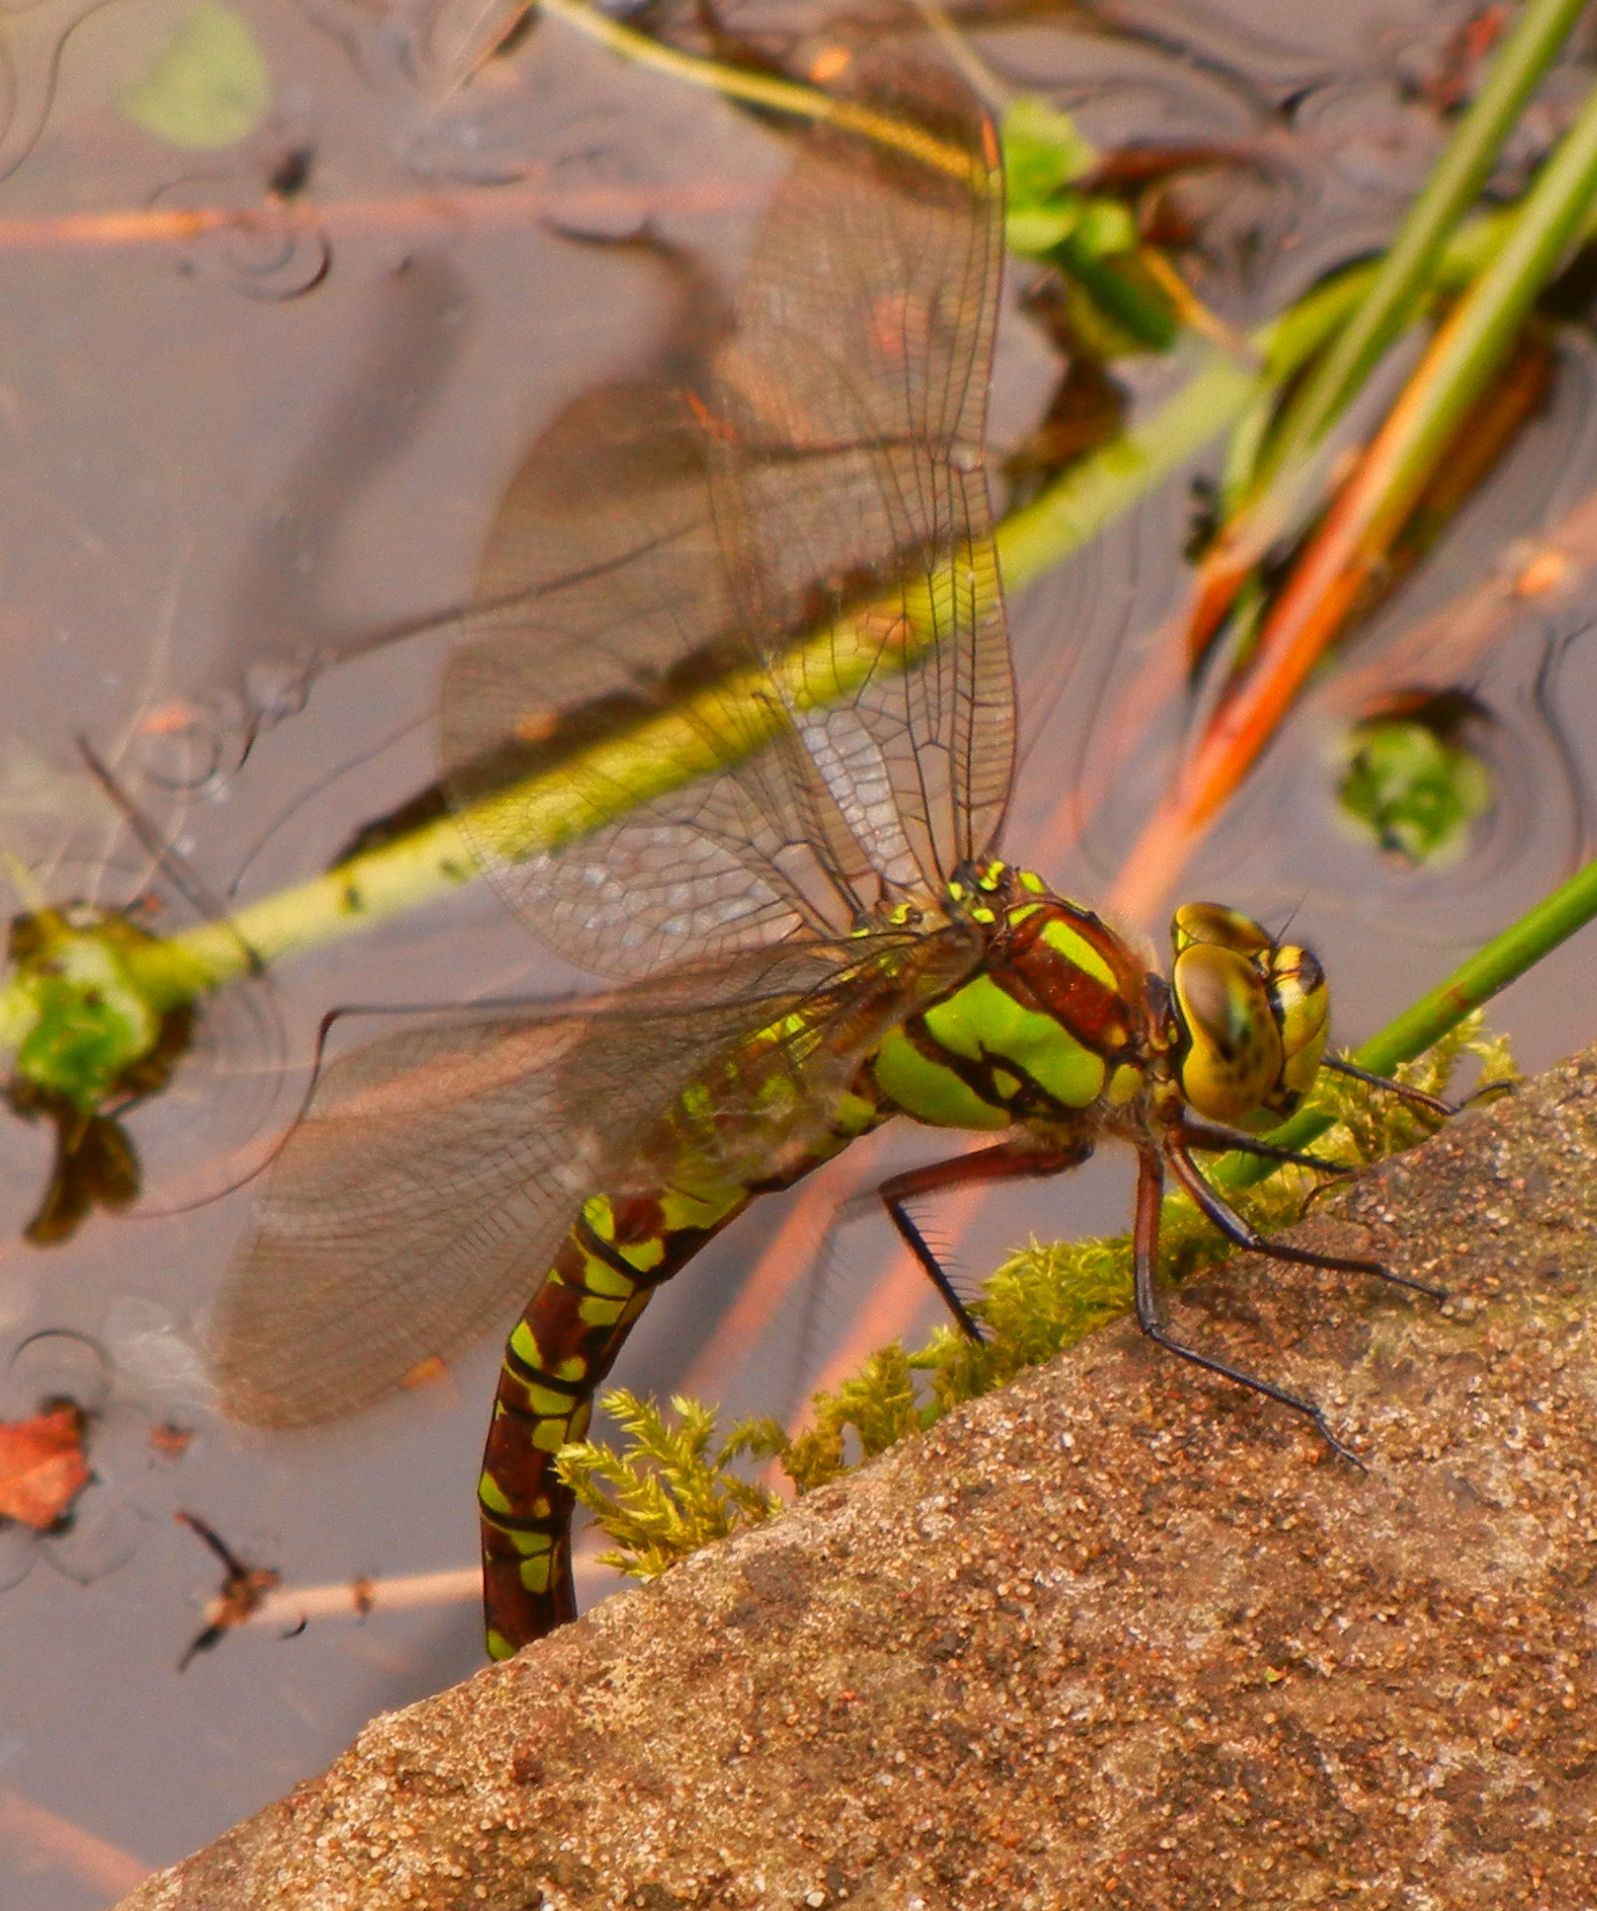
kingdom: Animalia
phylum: Arthropoda
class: Insecta
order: Odonata
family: Aeshnidae
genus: Aeshna
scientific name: Aeshna cyanea
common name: Southern hawker
